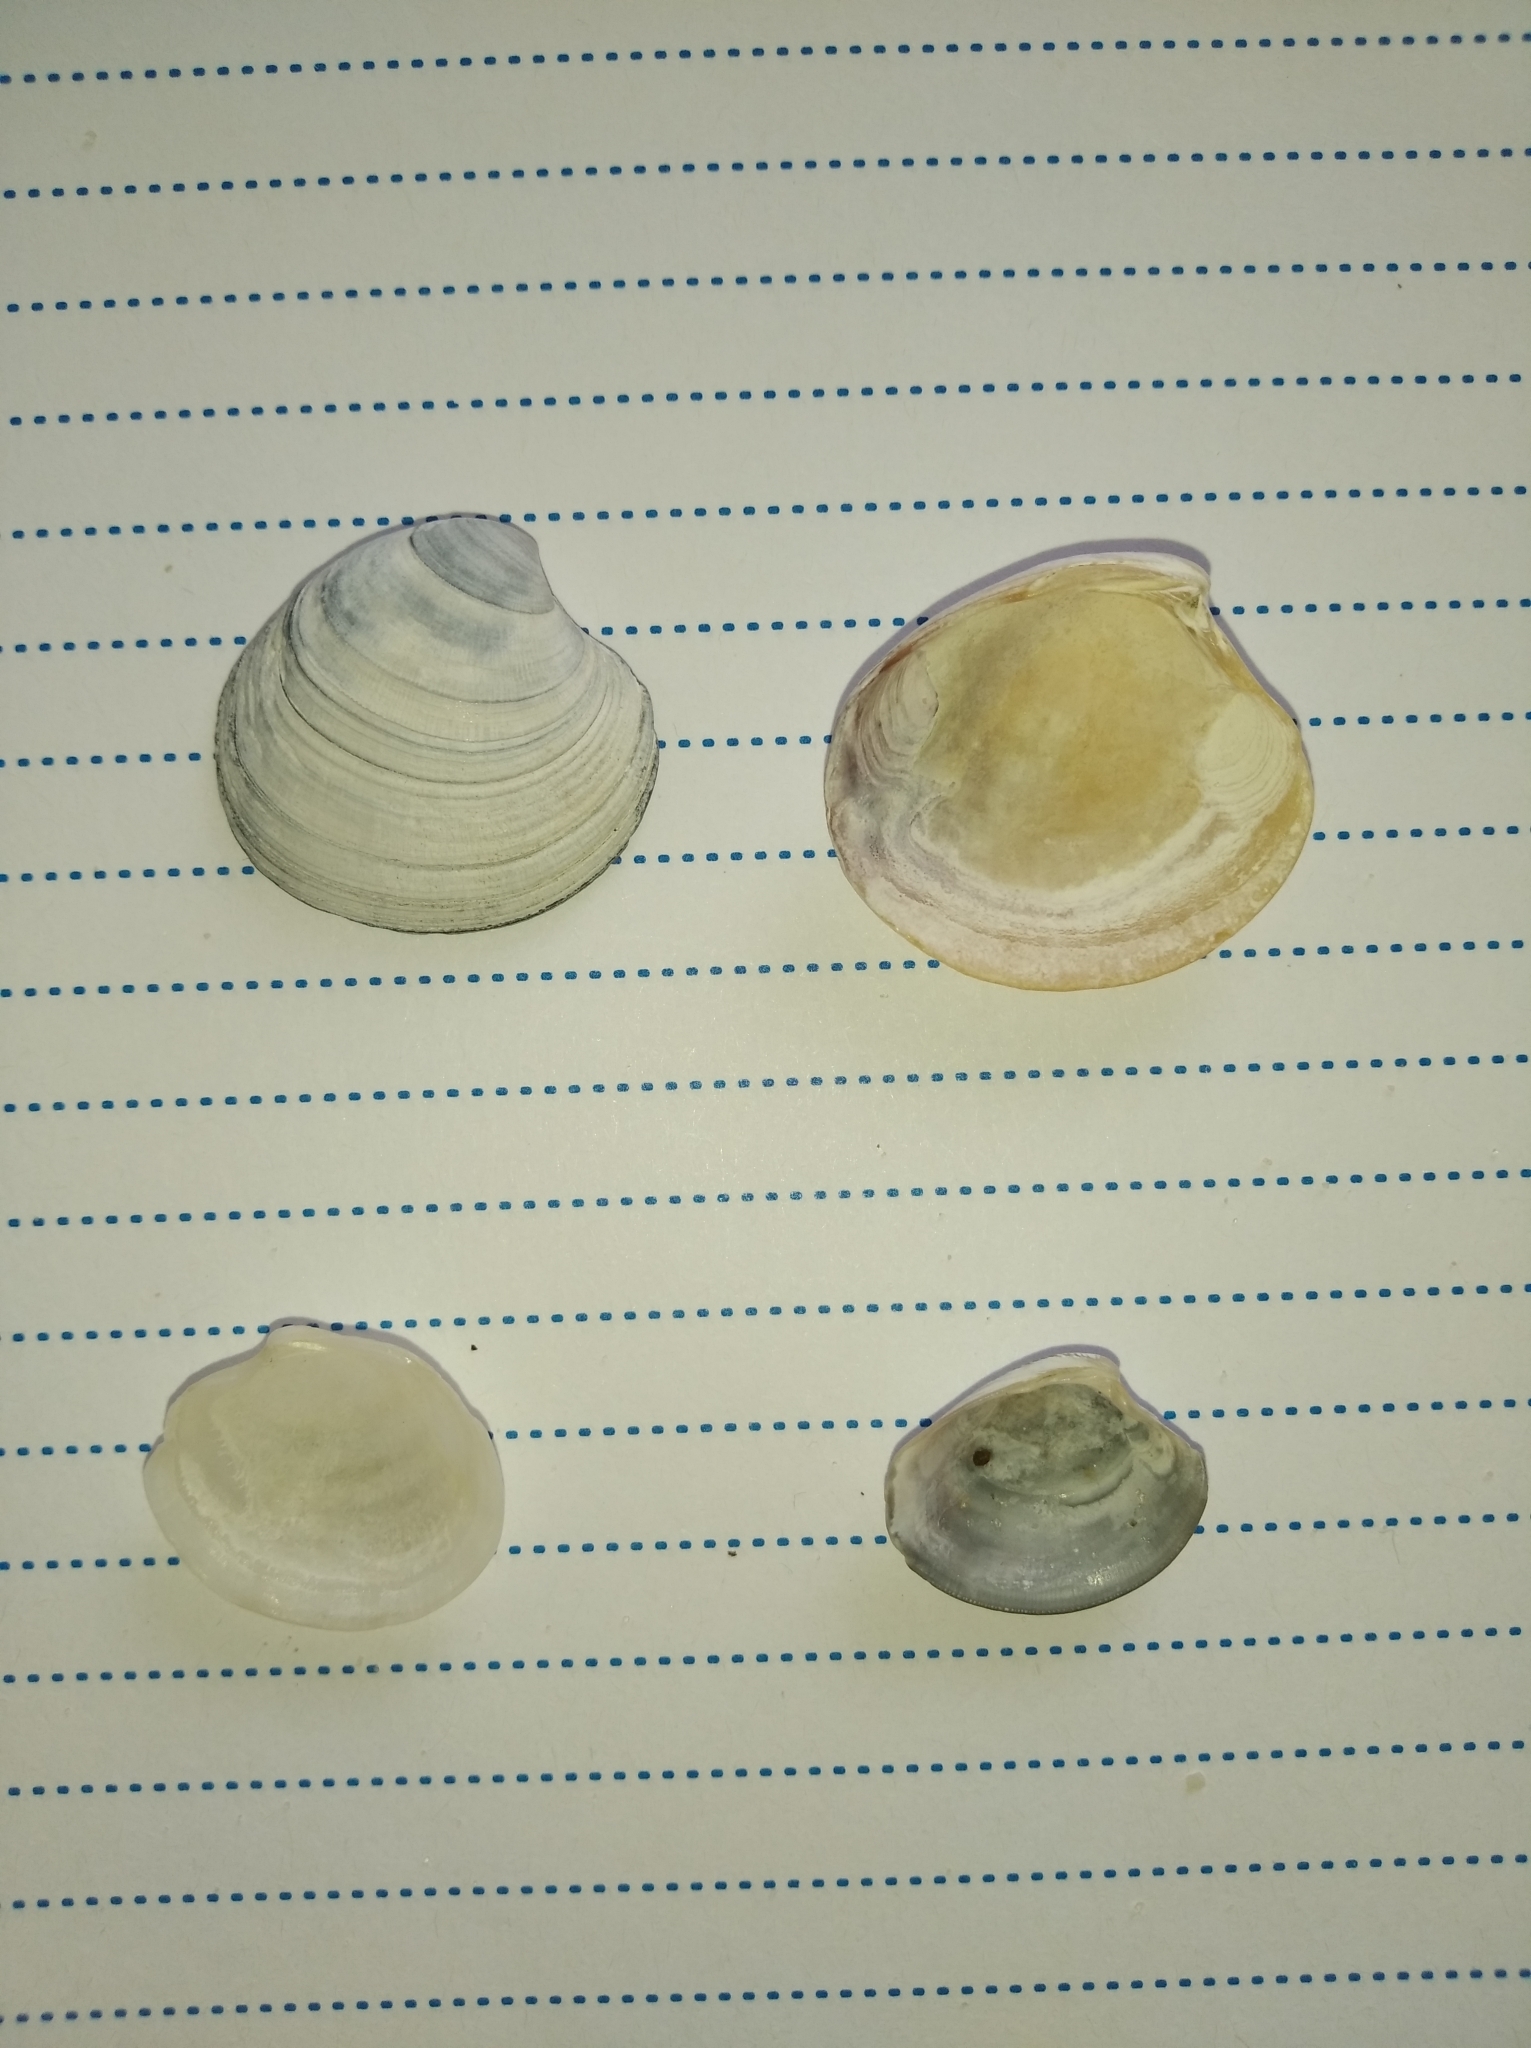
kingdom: Animalia
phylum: Mollusca
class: Bivalvia
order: Venerida
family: Veneridae
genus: Chamelea
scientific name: Chamelea gallina
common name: Chicken venus
